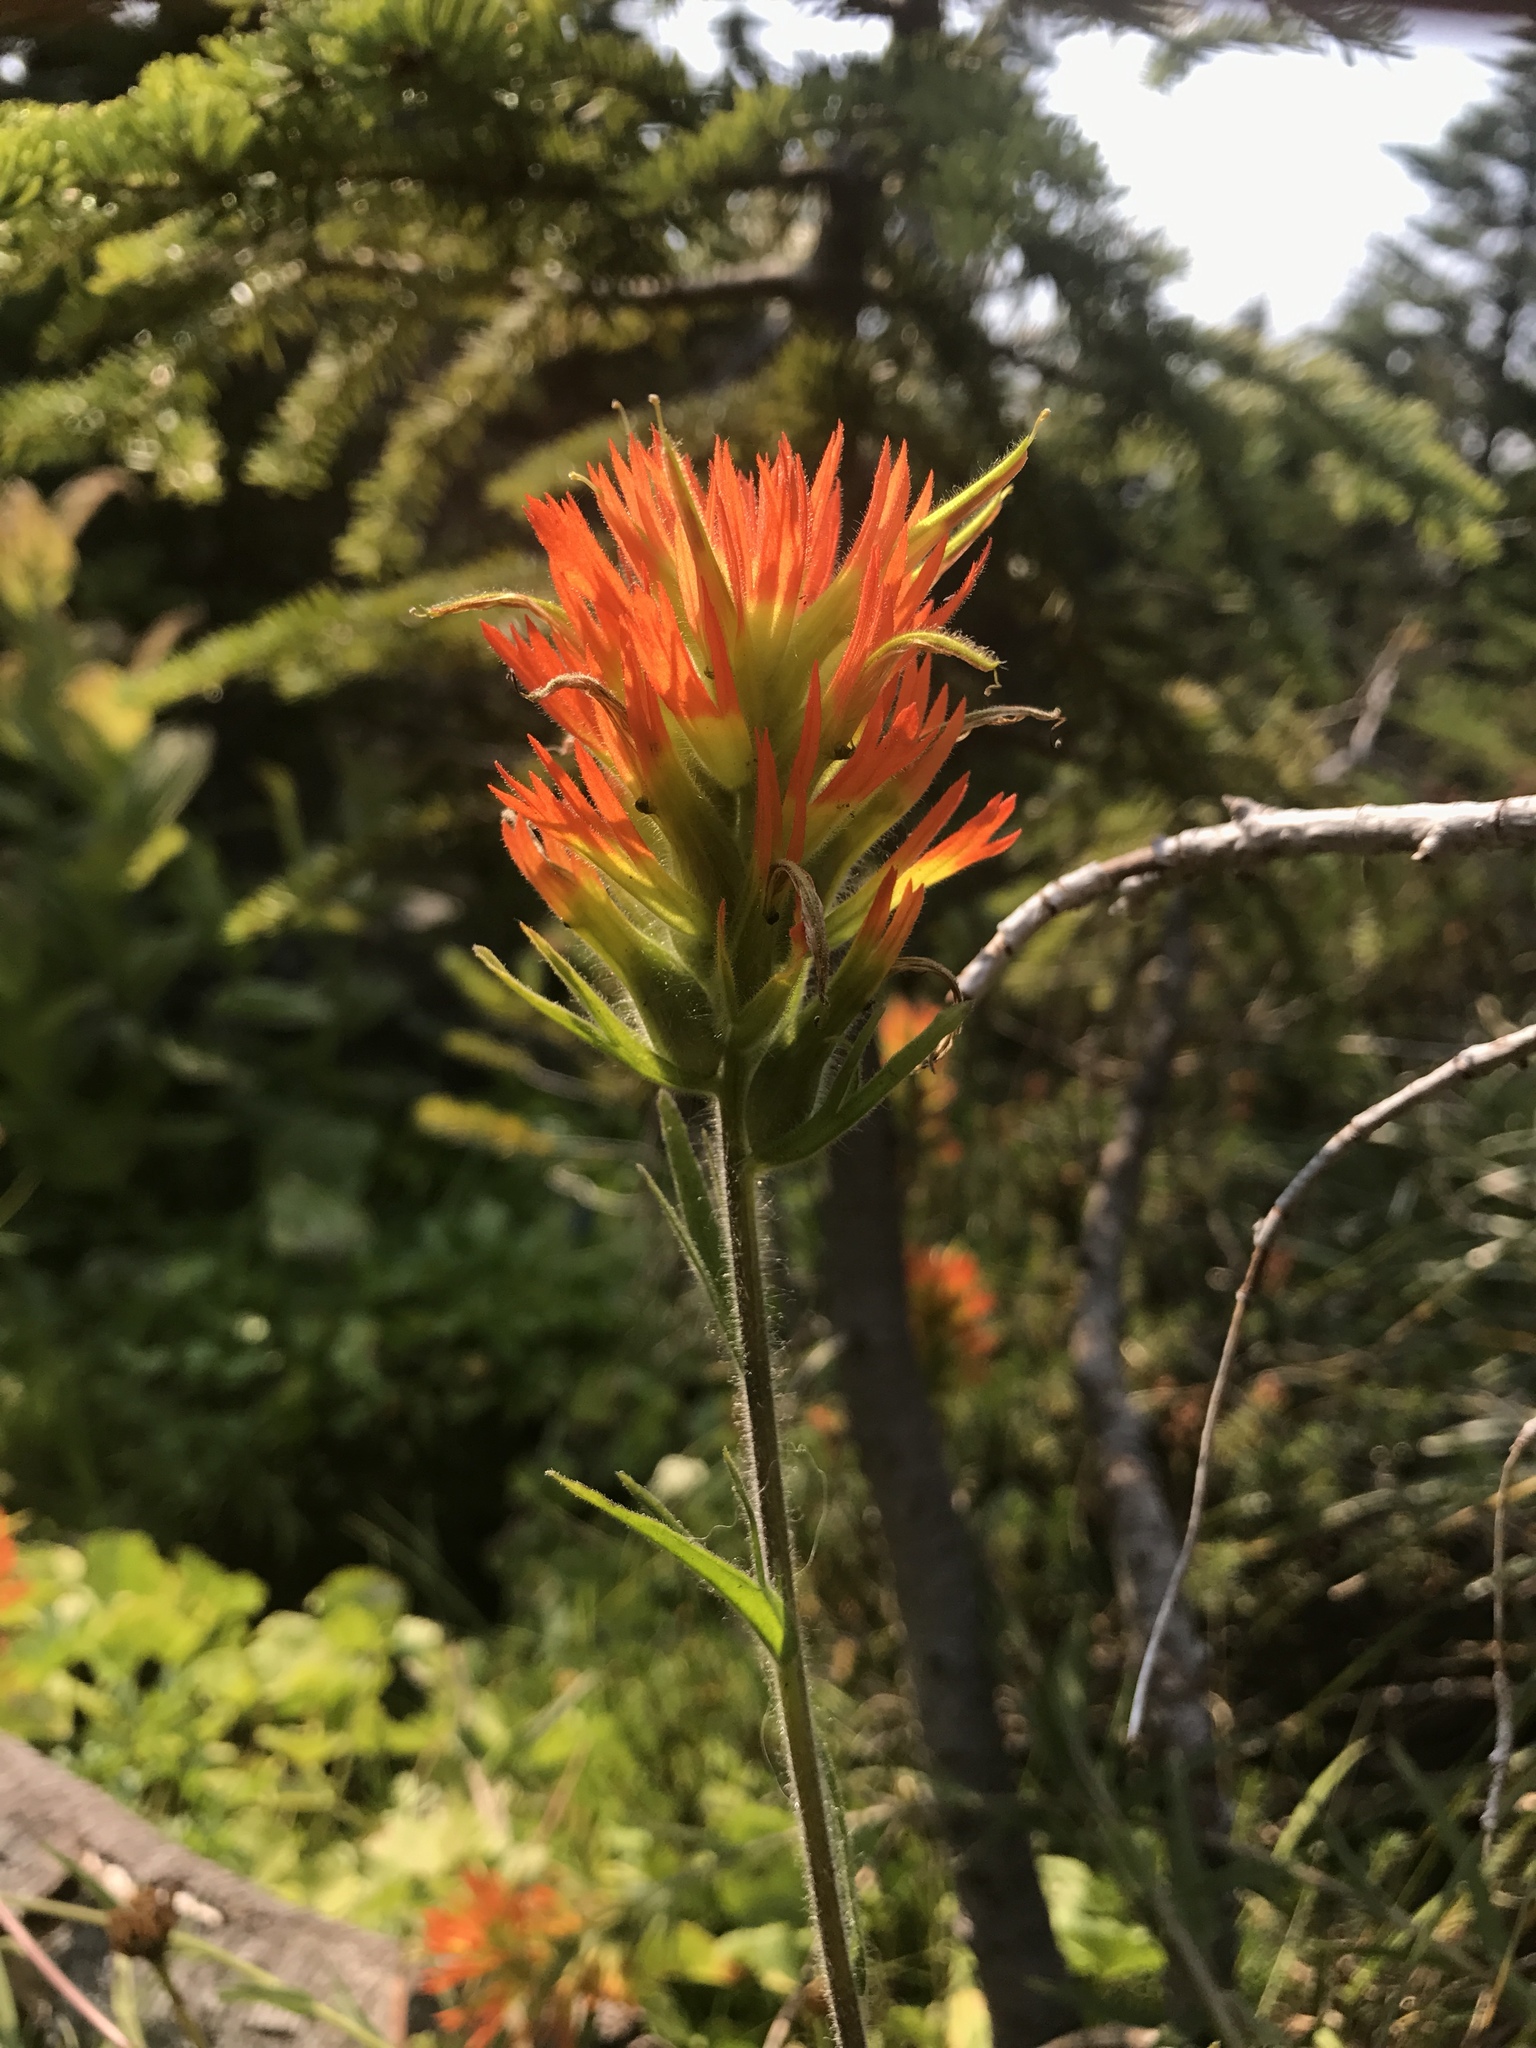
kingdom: Plantae
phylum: Tracheophyta
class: Magnoliopsida
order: Lamiales
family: Orobanchaceae
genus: Castilleja
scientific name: Castilleja suksdorfii
